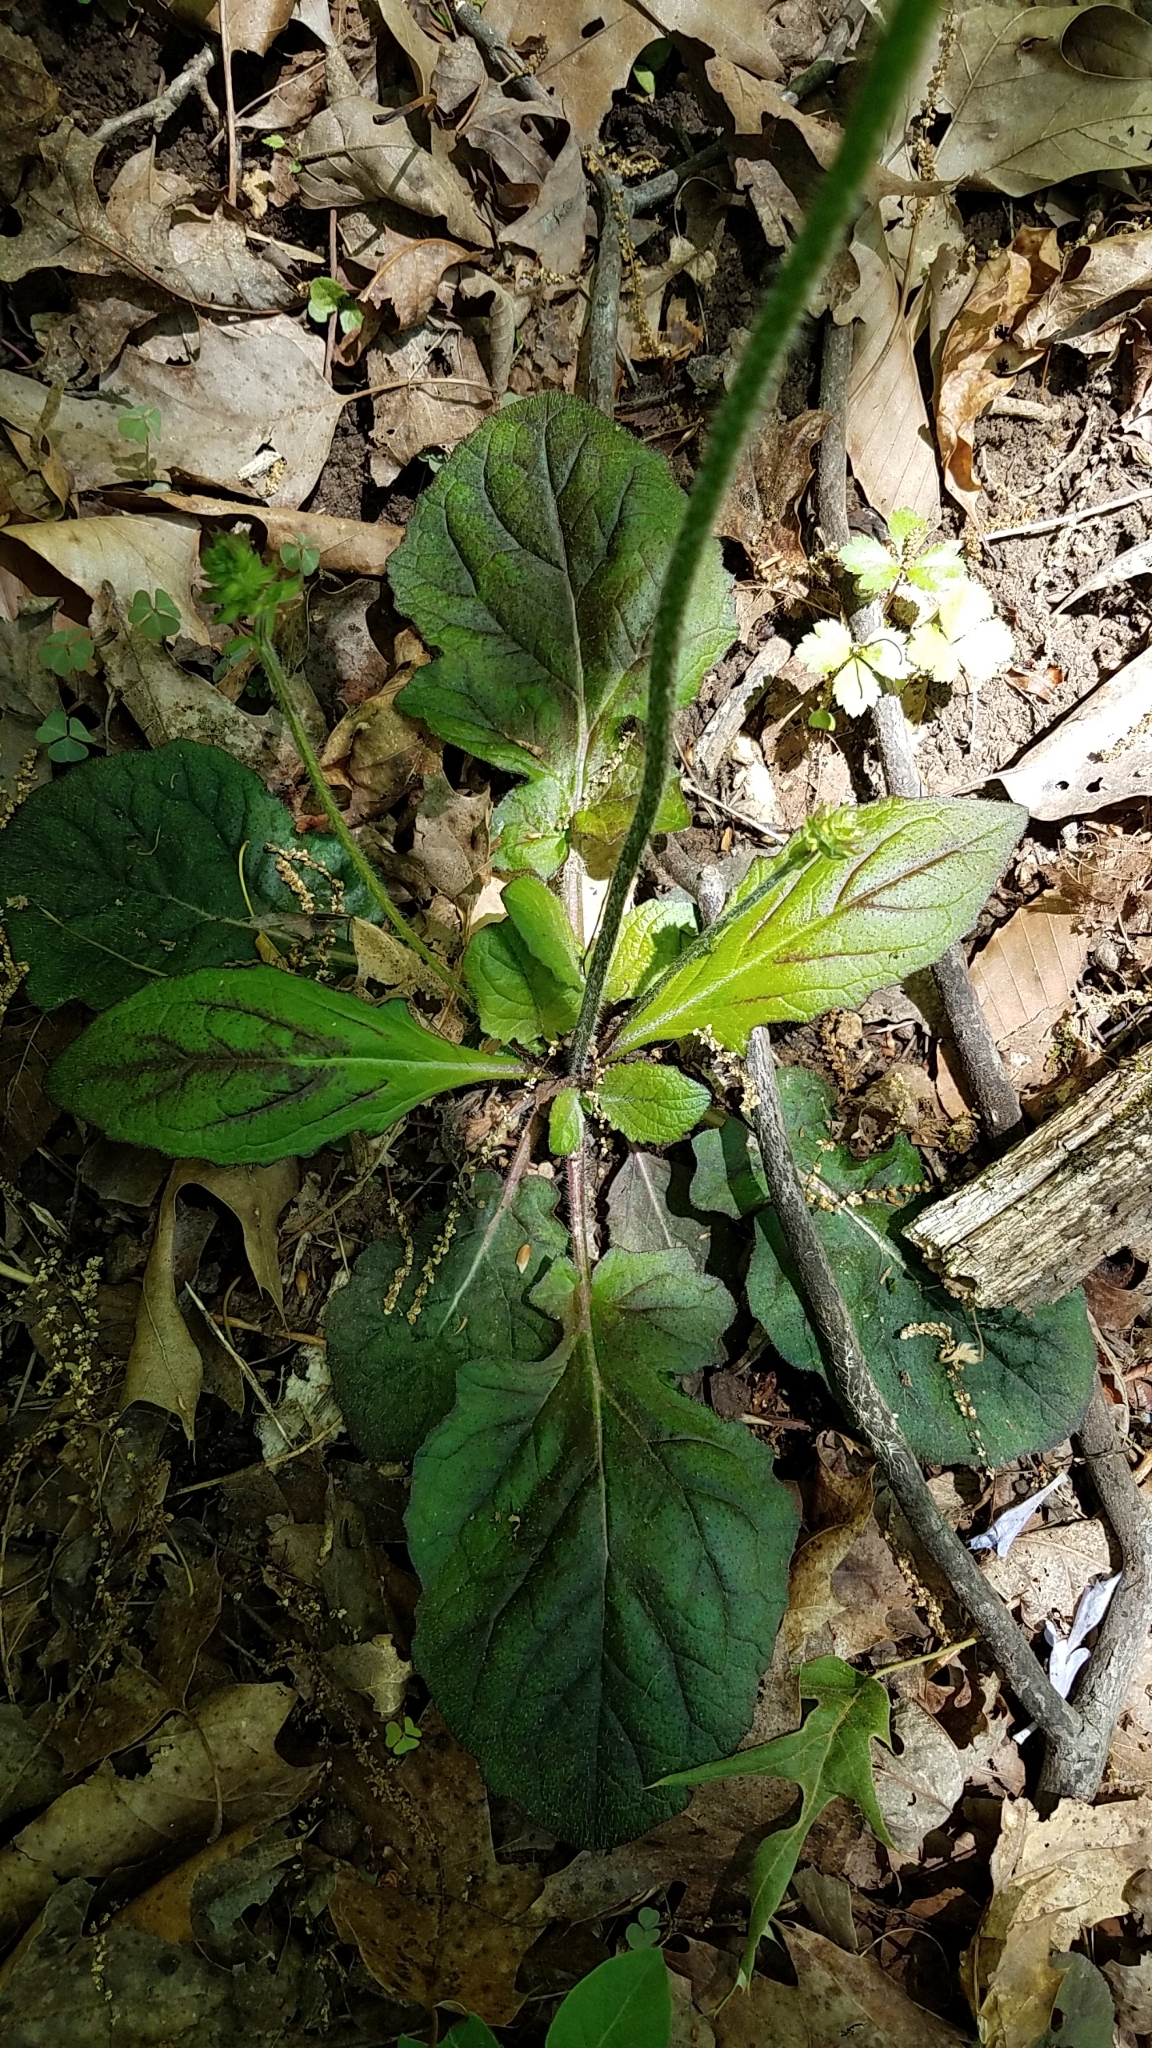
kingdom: Plantae
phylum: Tracheophyta
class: Magnoliopsida
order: Lamiales
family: Lamiaceae
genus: Salvia
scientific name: Salvia lyrata
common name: Cancerweed
